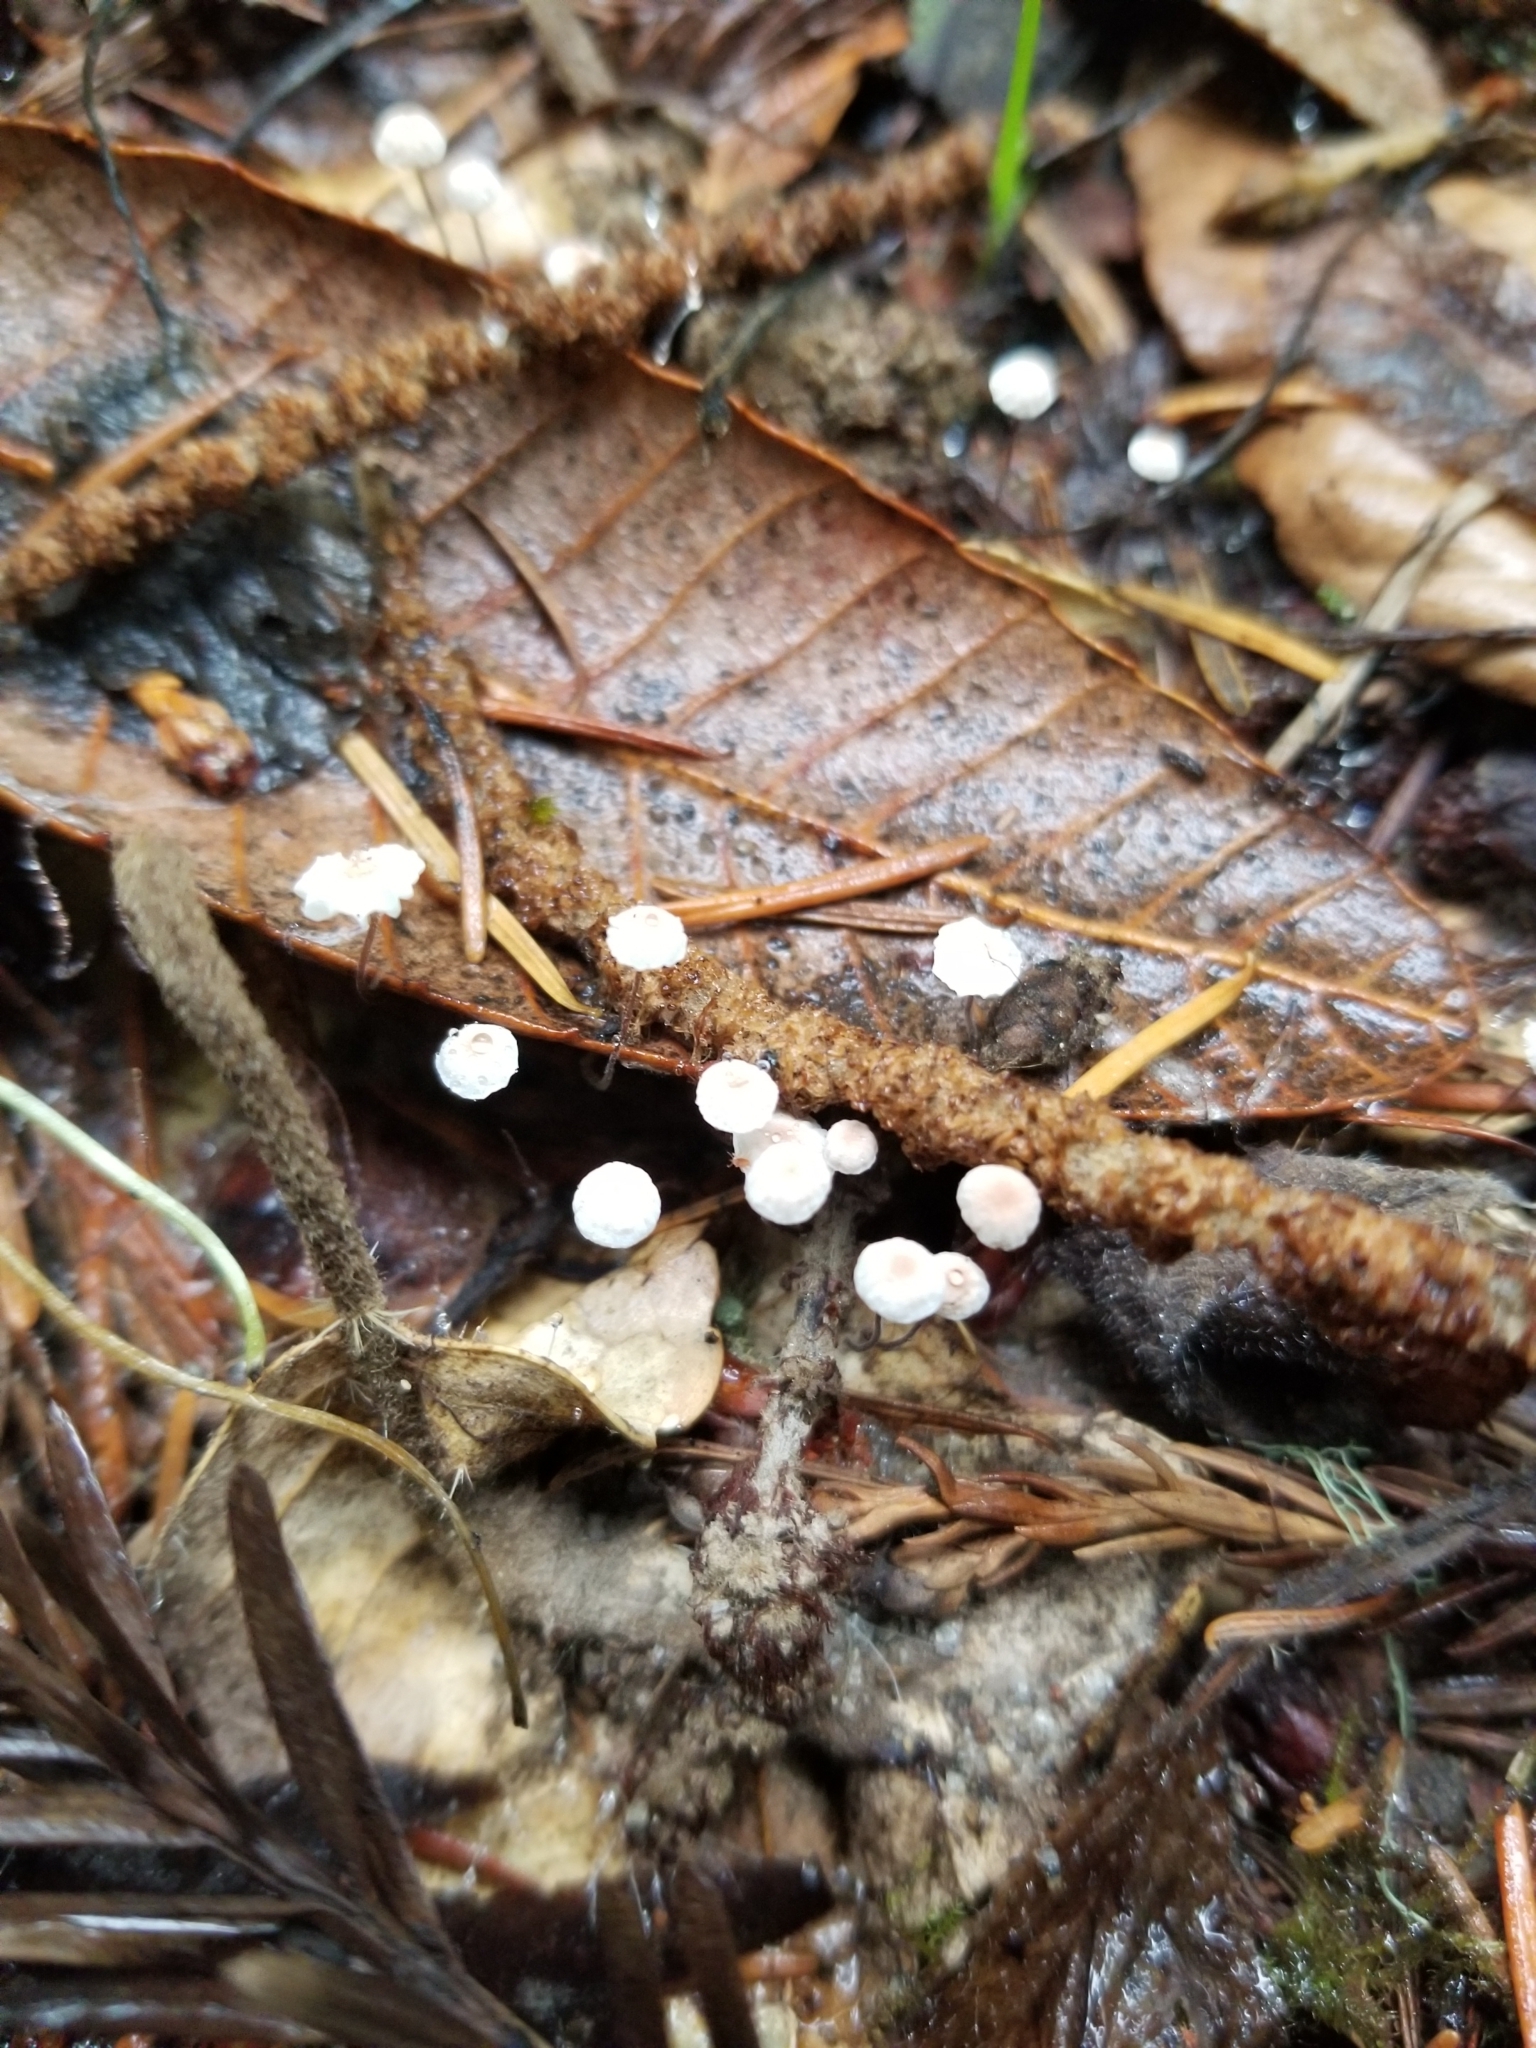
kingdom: Fungi
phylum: Basidiomycota
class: Agaricomycetes
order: Agaricales
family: Omphalotaceae
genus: Collybiopsis
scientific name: Collybiopsis quercophila
